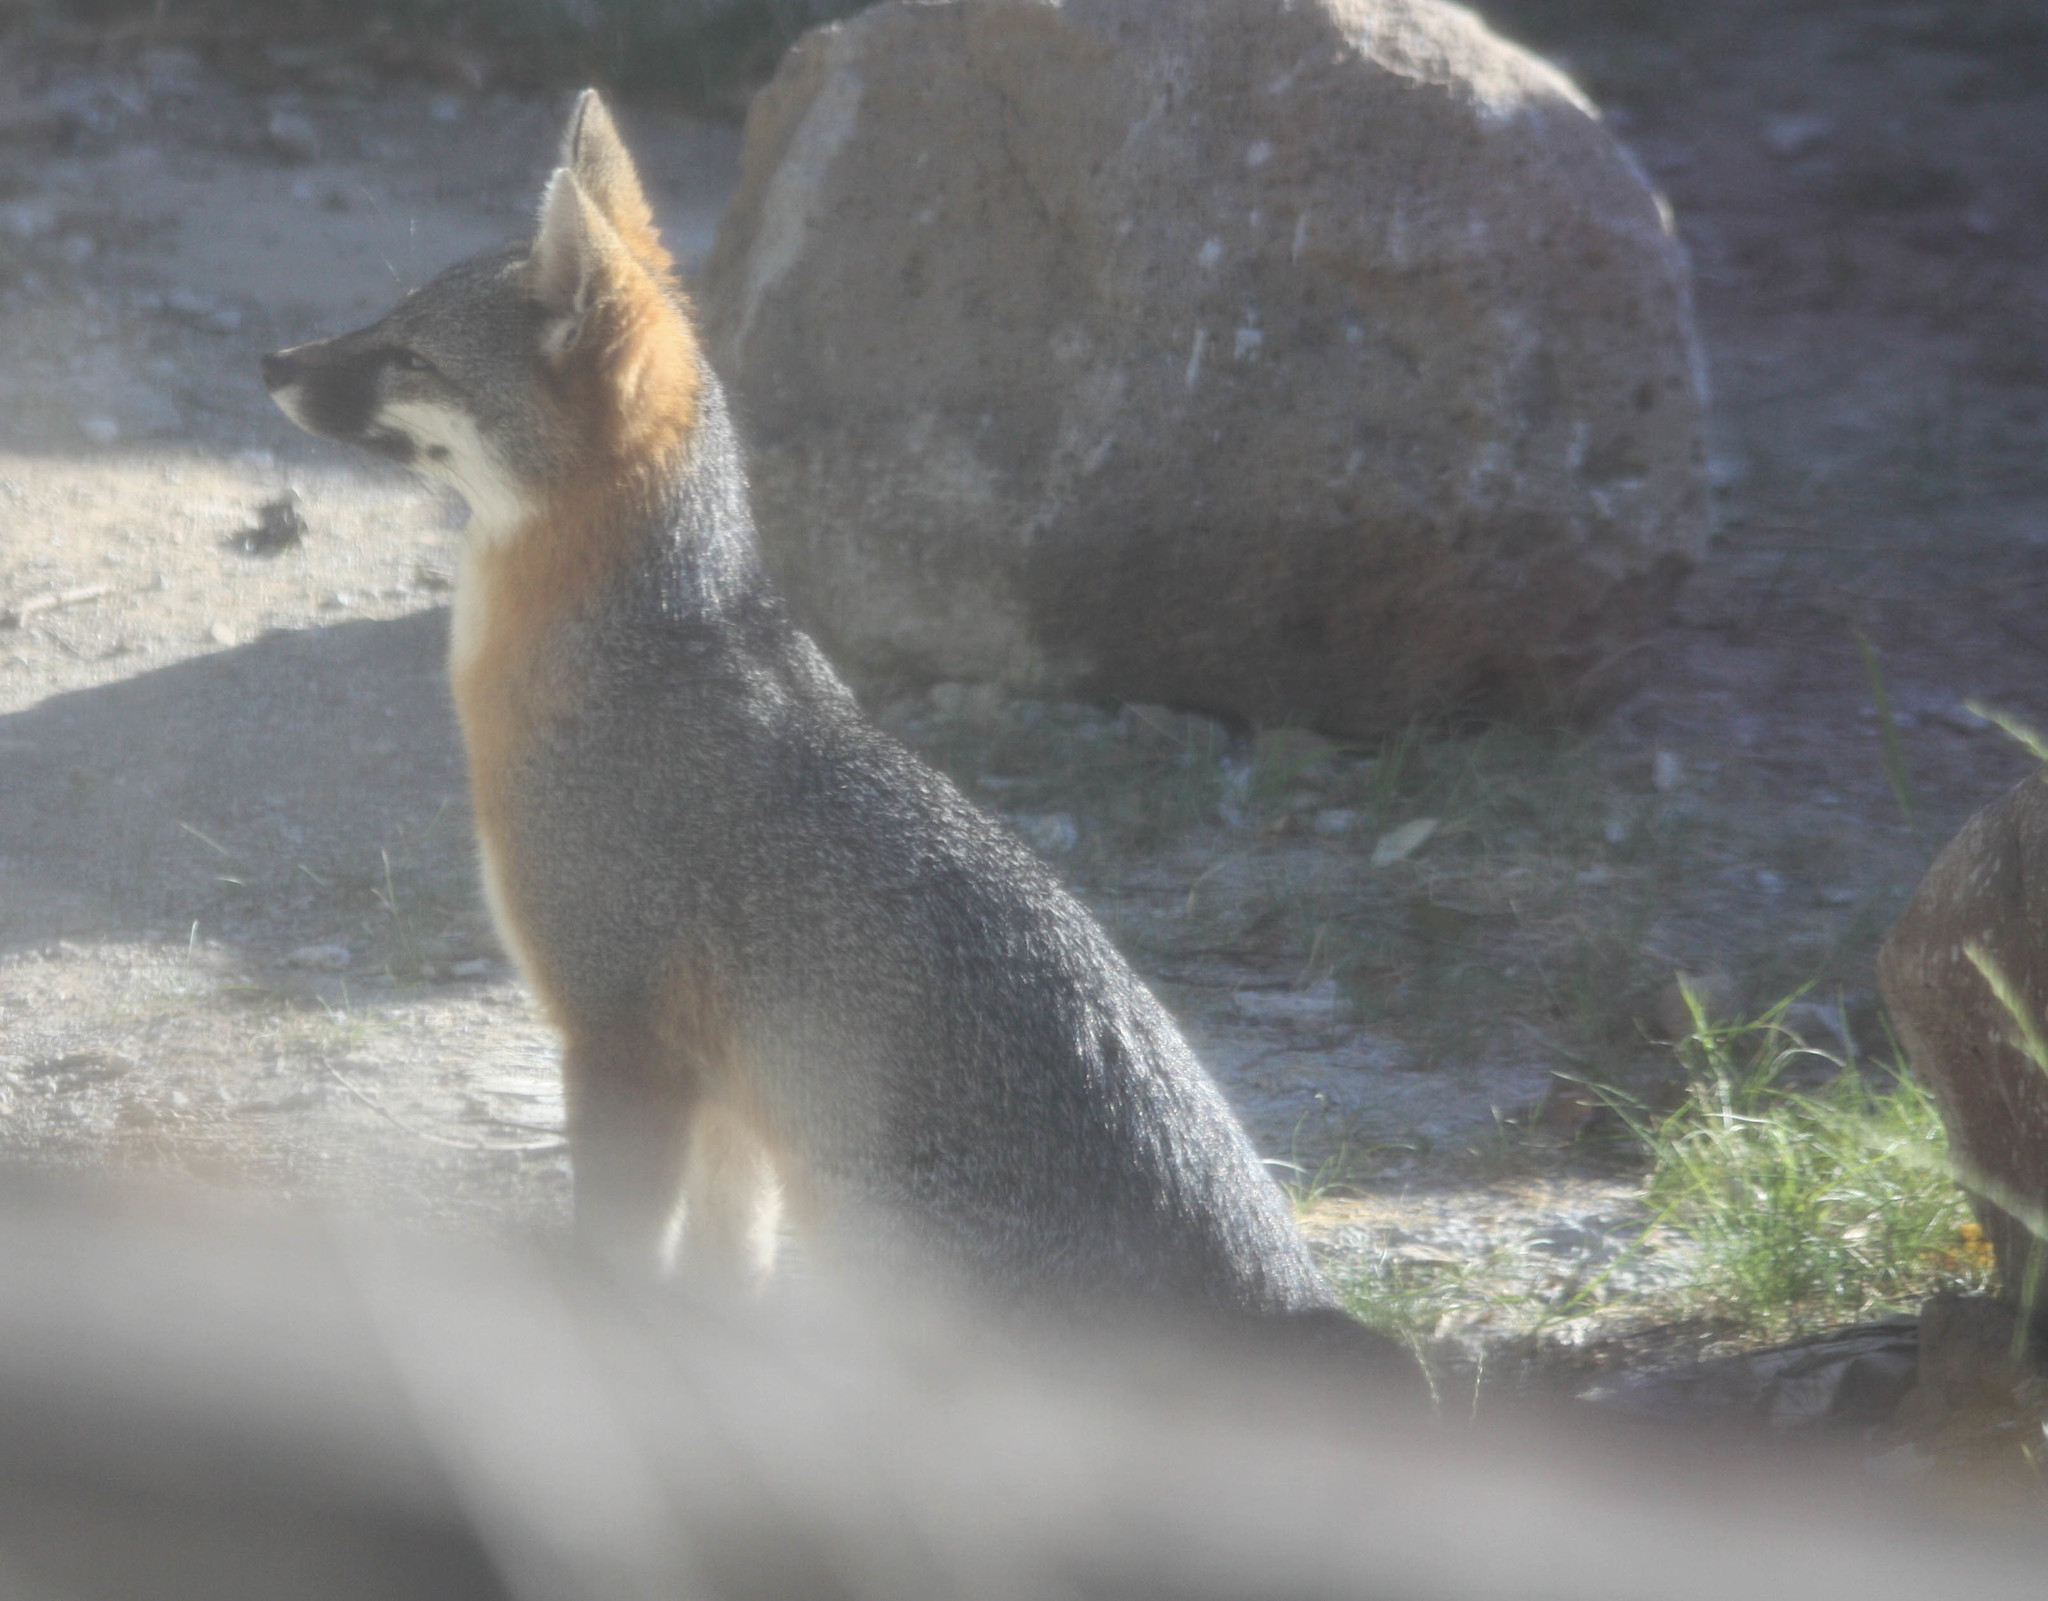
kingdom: Animalia
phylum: Chordata
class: Mammalia
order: Carnivora
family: Canidae
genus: Urocyon
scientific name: Urocyon cinereoargenteus
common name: Gray fox
